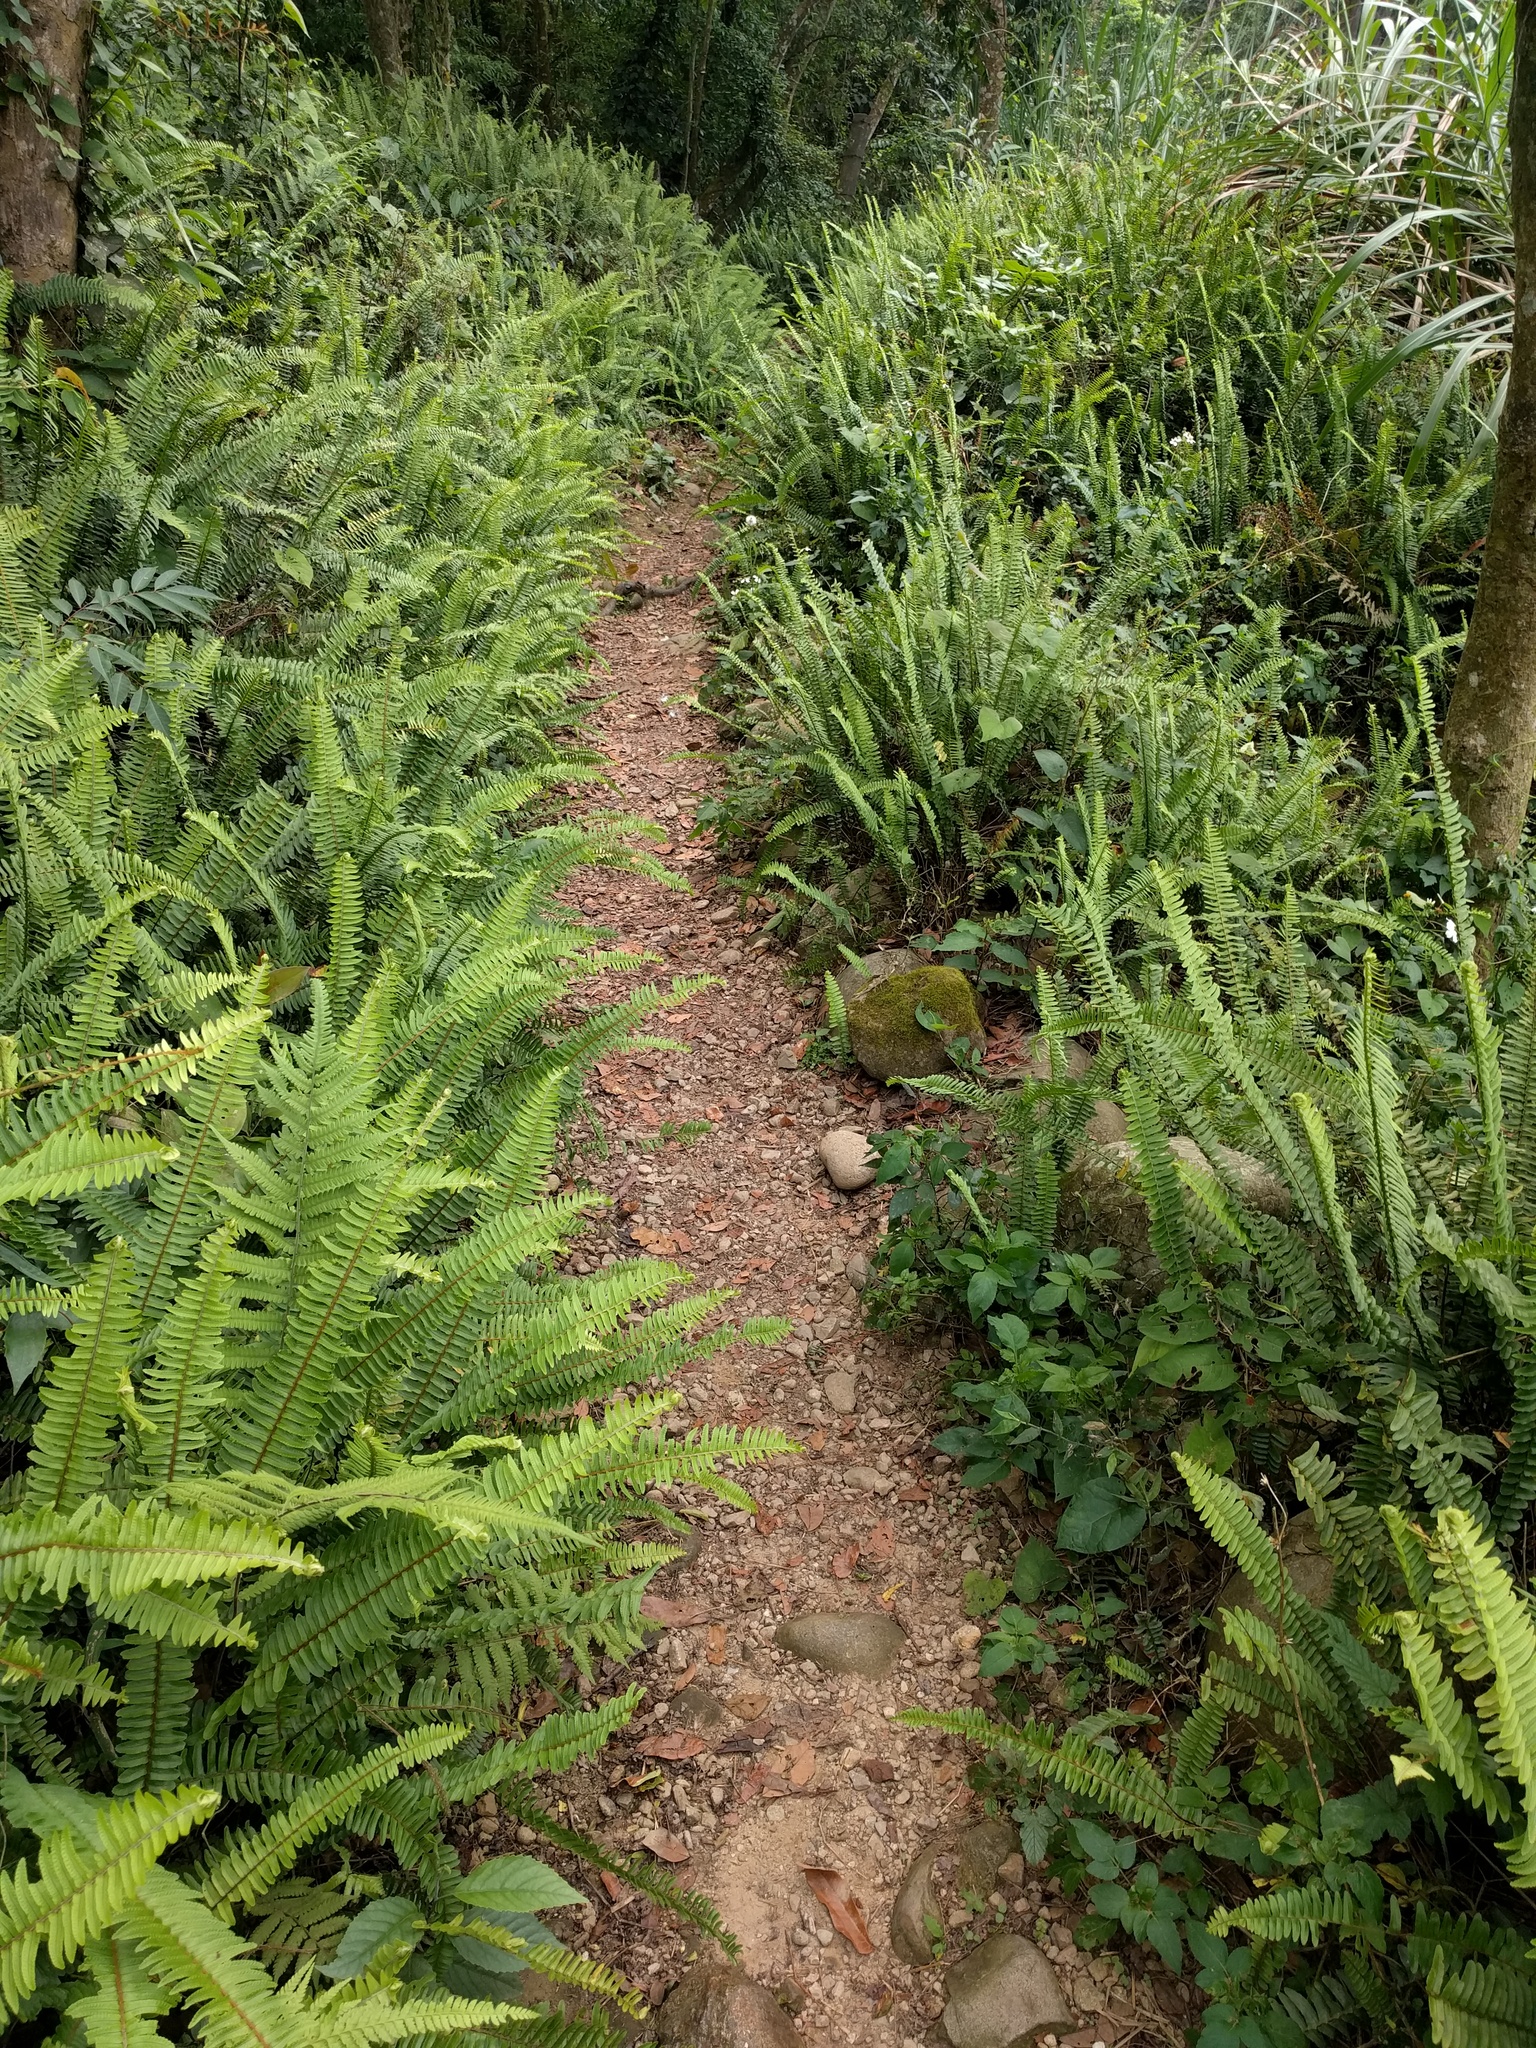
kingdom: Plantae
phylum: Tracheophyta
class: Polypodiopsida
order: Polypodiales
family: Nephrolepidaceae
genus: Nephrolepis
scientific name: Nephrolepis cordifolia
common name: Narrow swordfern
